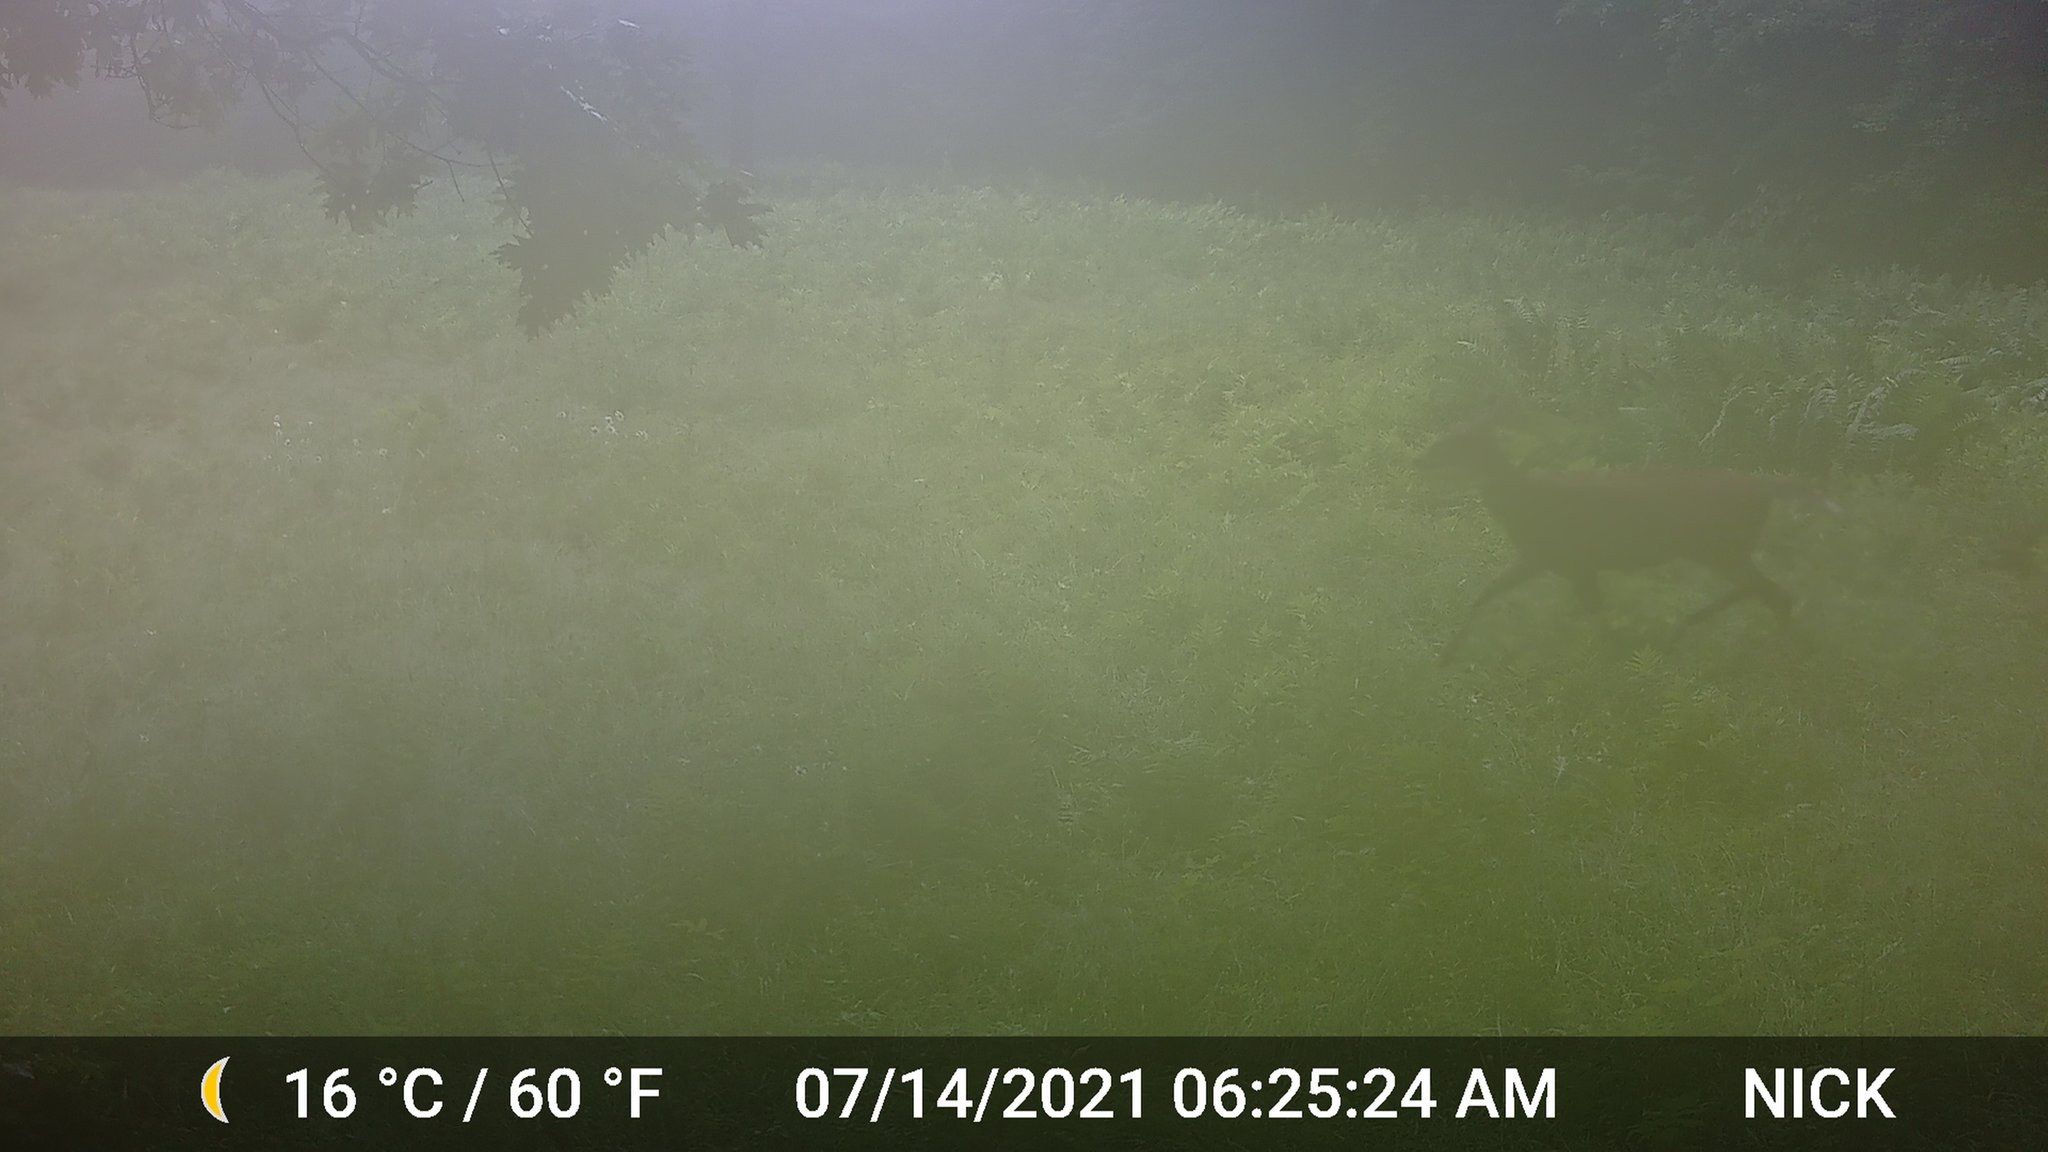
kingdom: Animalia
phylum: Chordata
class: Mammalia
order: Artiodactyla
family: Cervidae
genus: Odocoileus
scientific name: Odocoileus virginianus
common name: White-tailed deer
